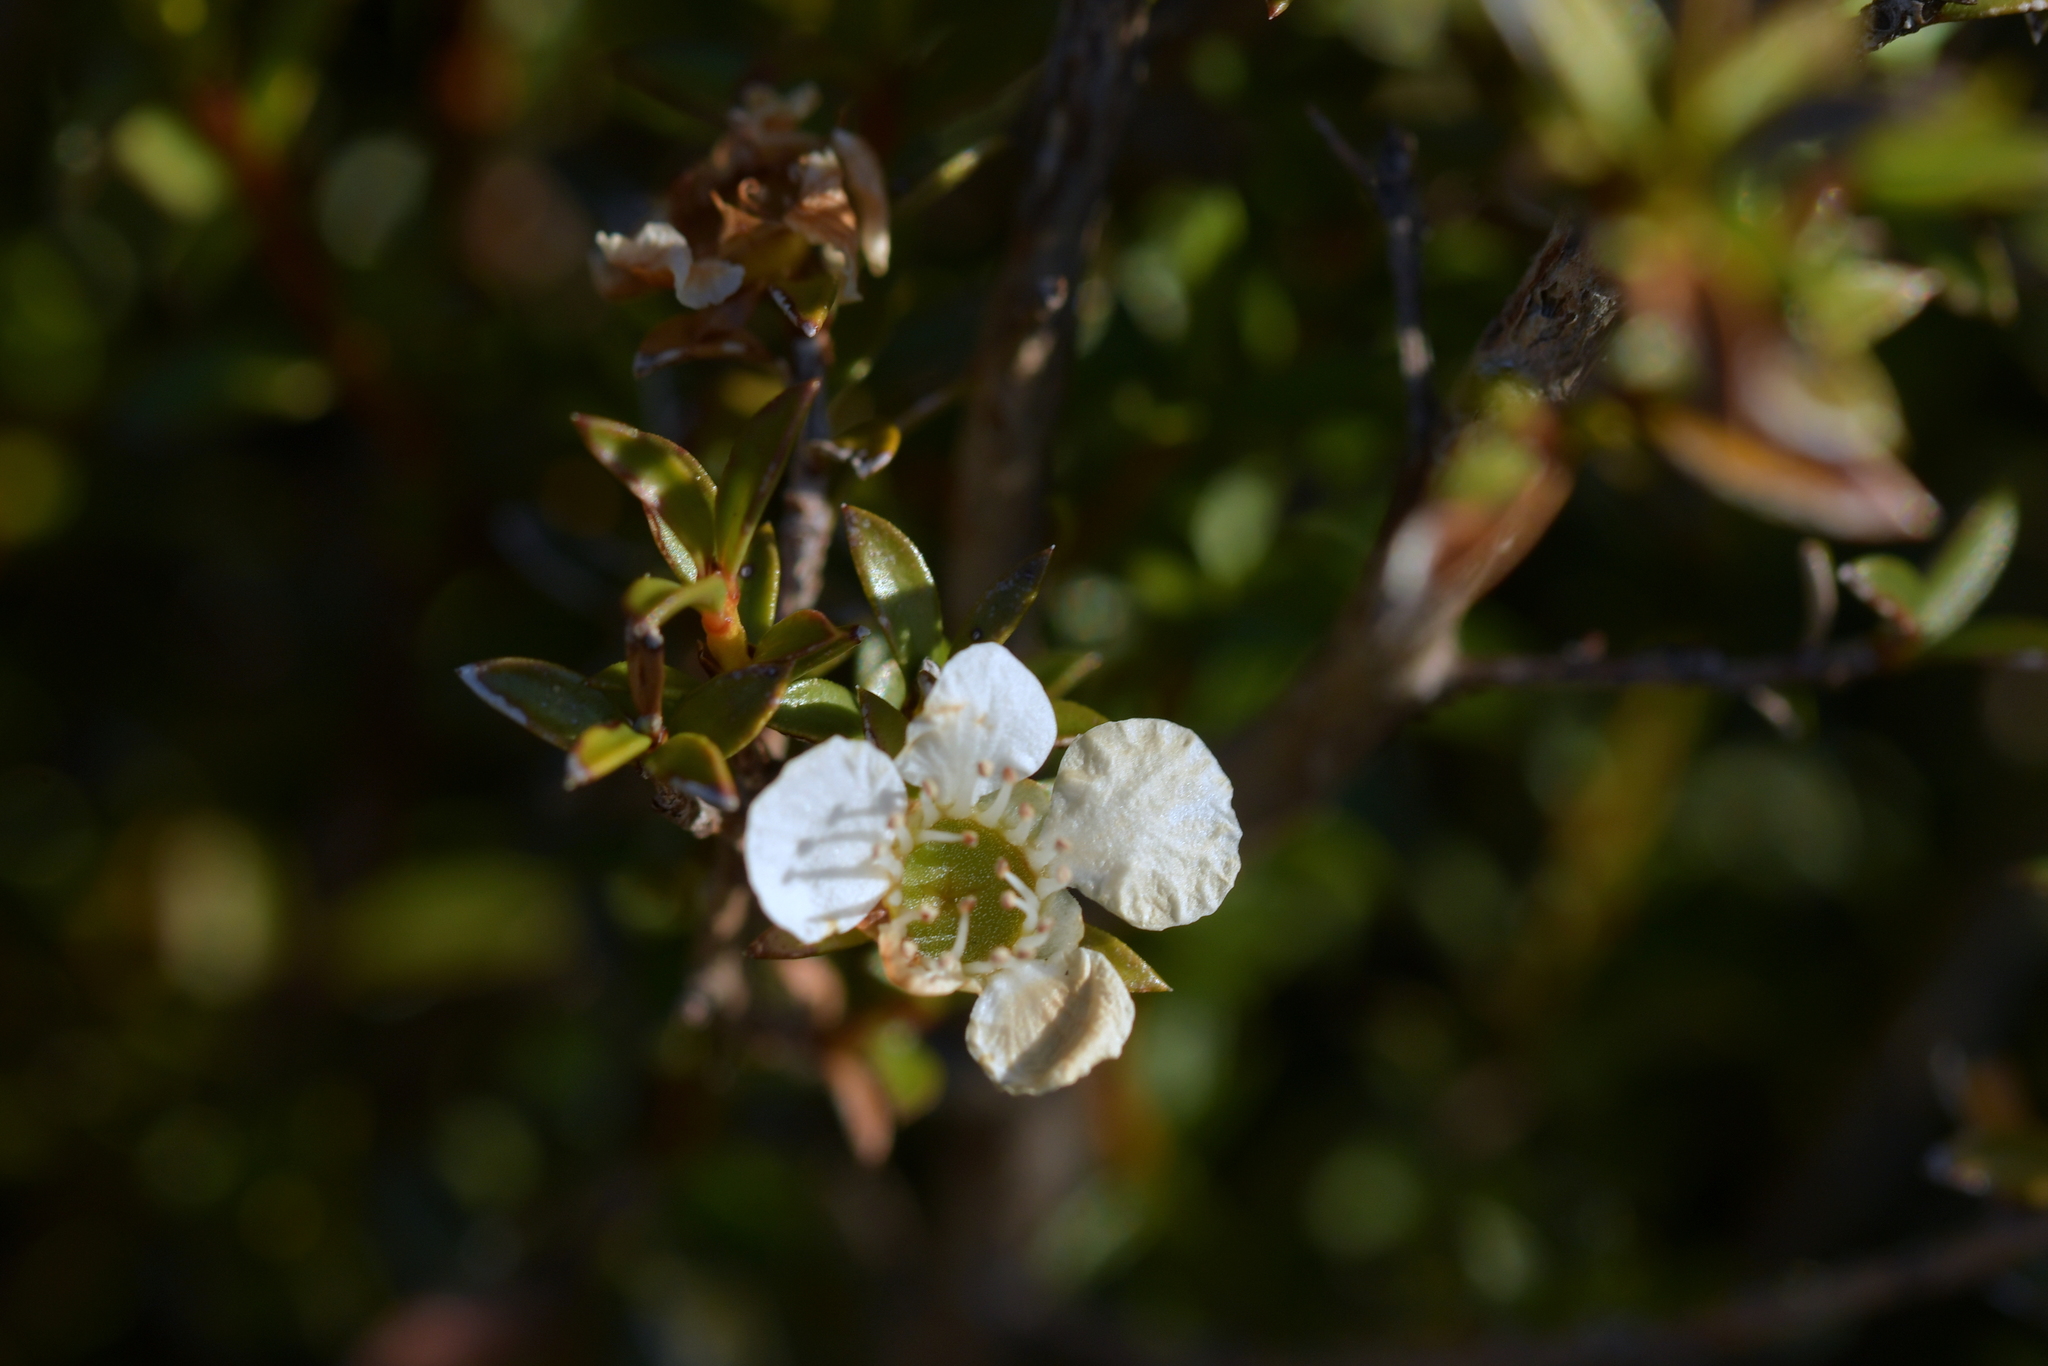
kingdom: Plantae
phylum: Tracheophyta
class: Magnoliopsida
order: Myrtales
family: Myrtaceae
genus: Leptospermum
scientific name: Leptospermum scoparium
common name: Broom tea-tree
